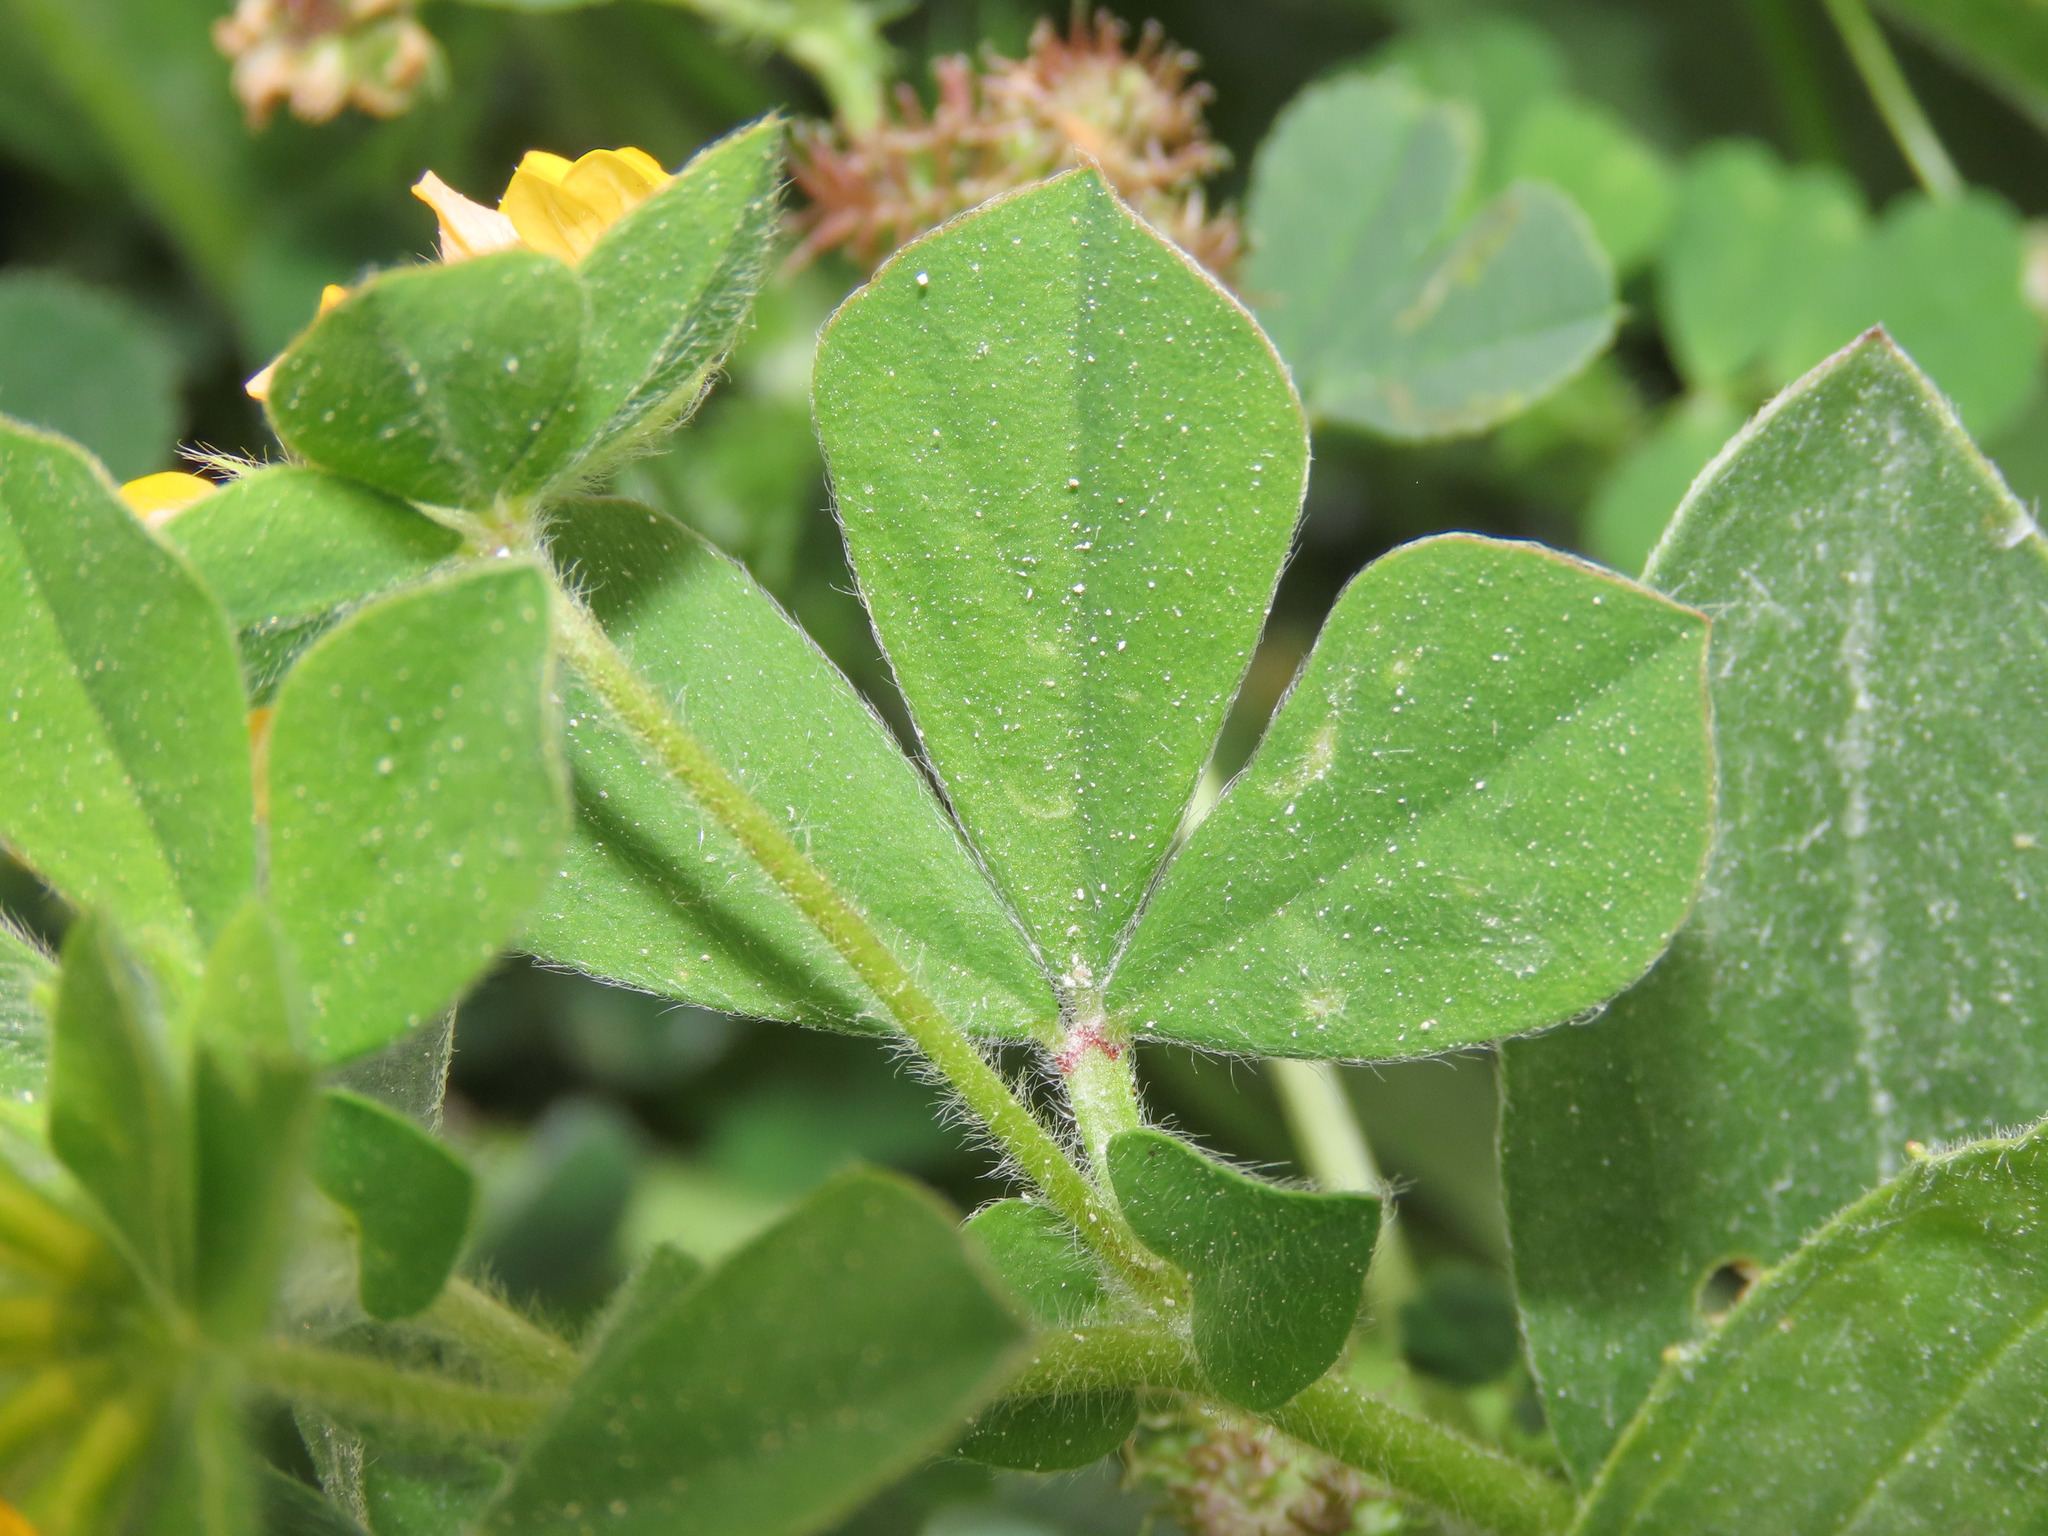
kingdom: Plantae
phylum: Tracheophyta
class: Magnoliopsida
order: Fabales
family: Fabaceae
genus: Lotus
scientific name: Lotus ornithopodioides
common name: Southern bird's-foot trefoil
